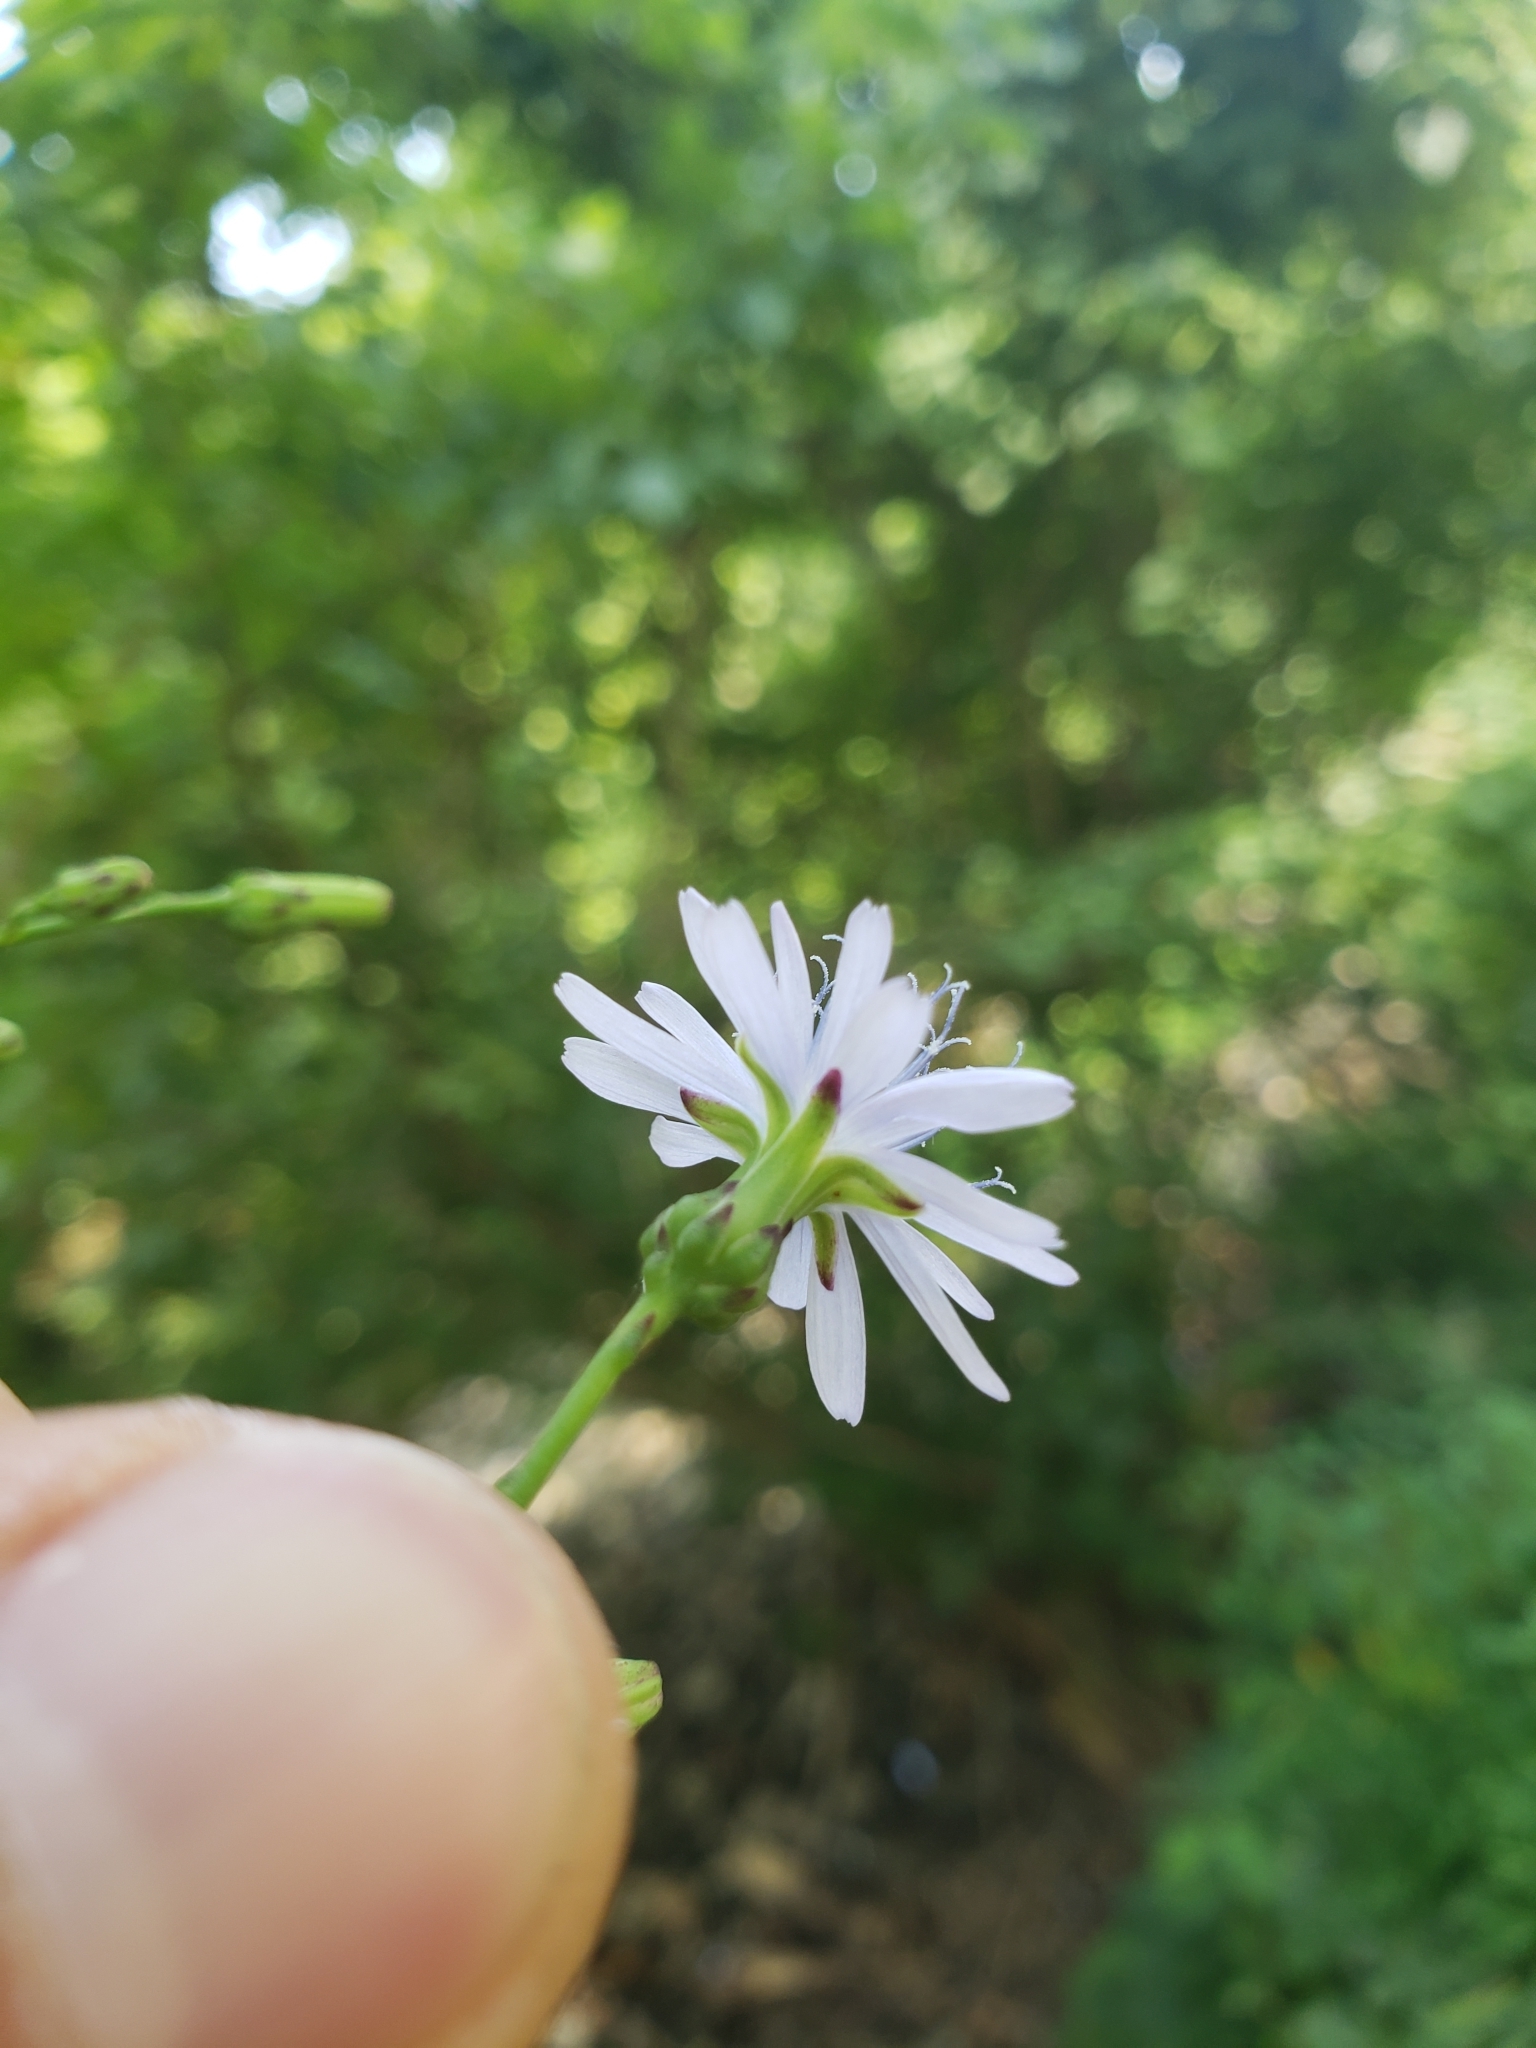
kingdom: Plantae
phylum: Tracheophyta
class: Magnoliopsida
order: Asterales
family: Asteraceae
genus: Lactuca
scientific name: Lactuca floridana
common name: Woodland lettuce
